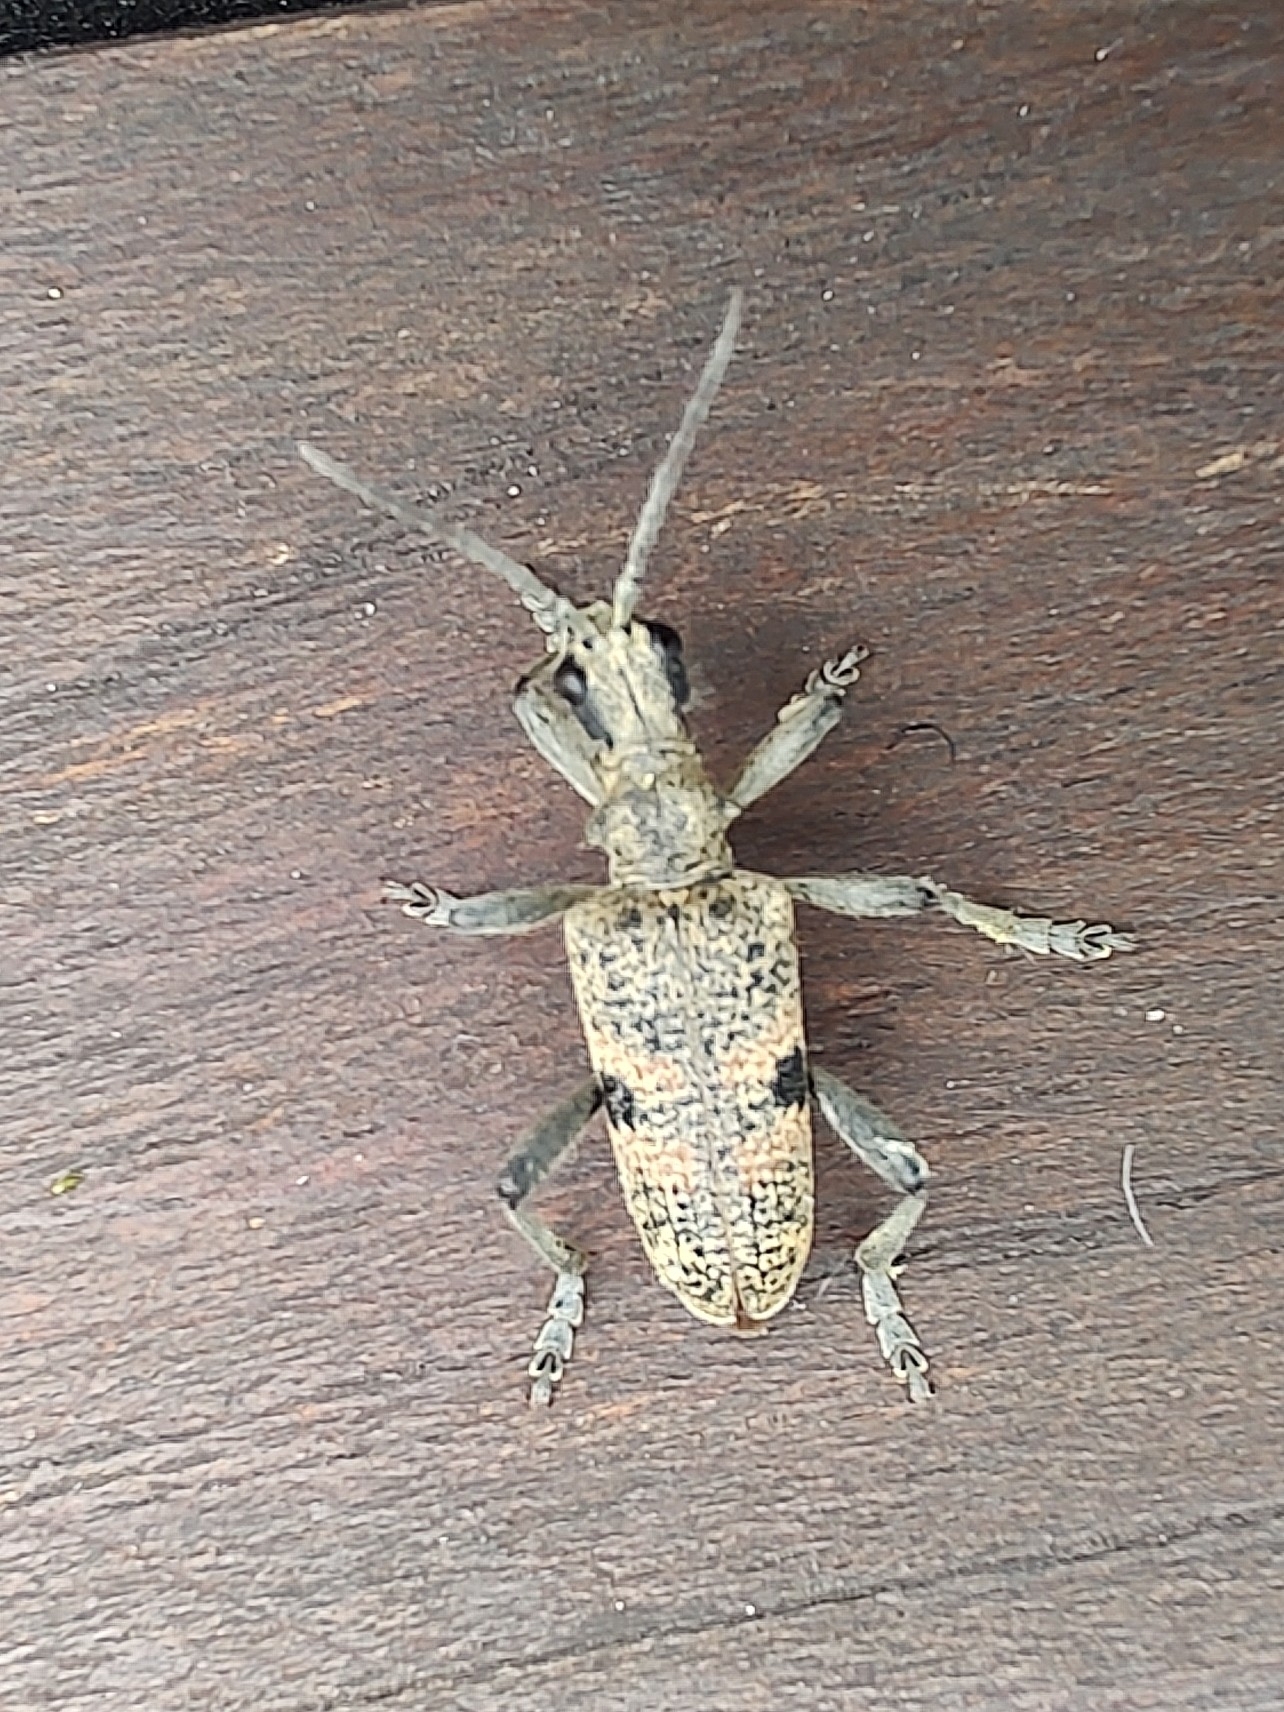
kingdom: Animalia
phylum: Arthropoda
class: Insecta
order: Coleoptera
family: Cerambycidae
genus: Rhagium
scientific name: Rhagium mordax
